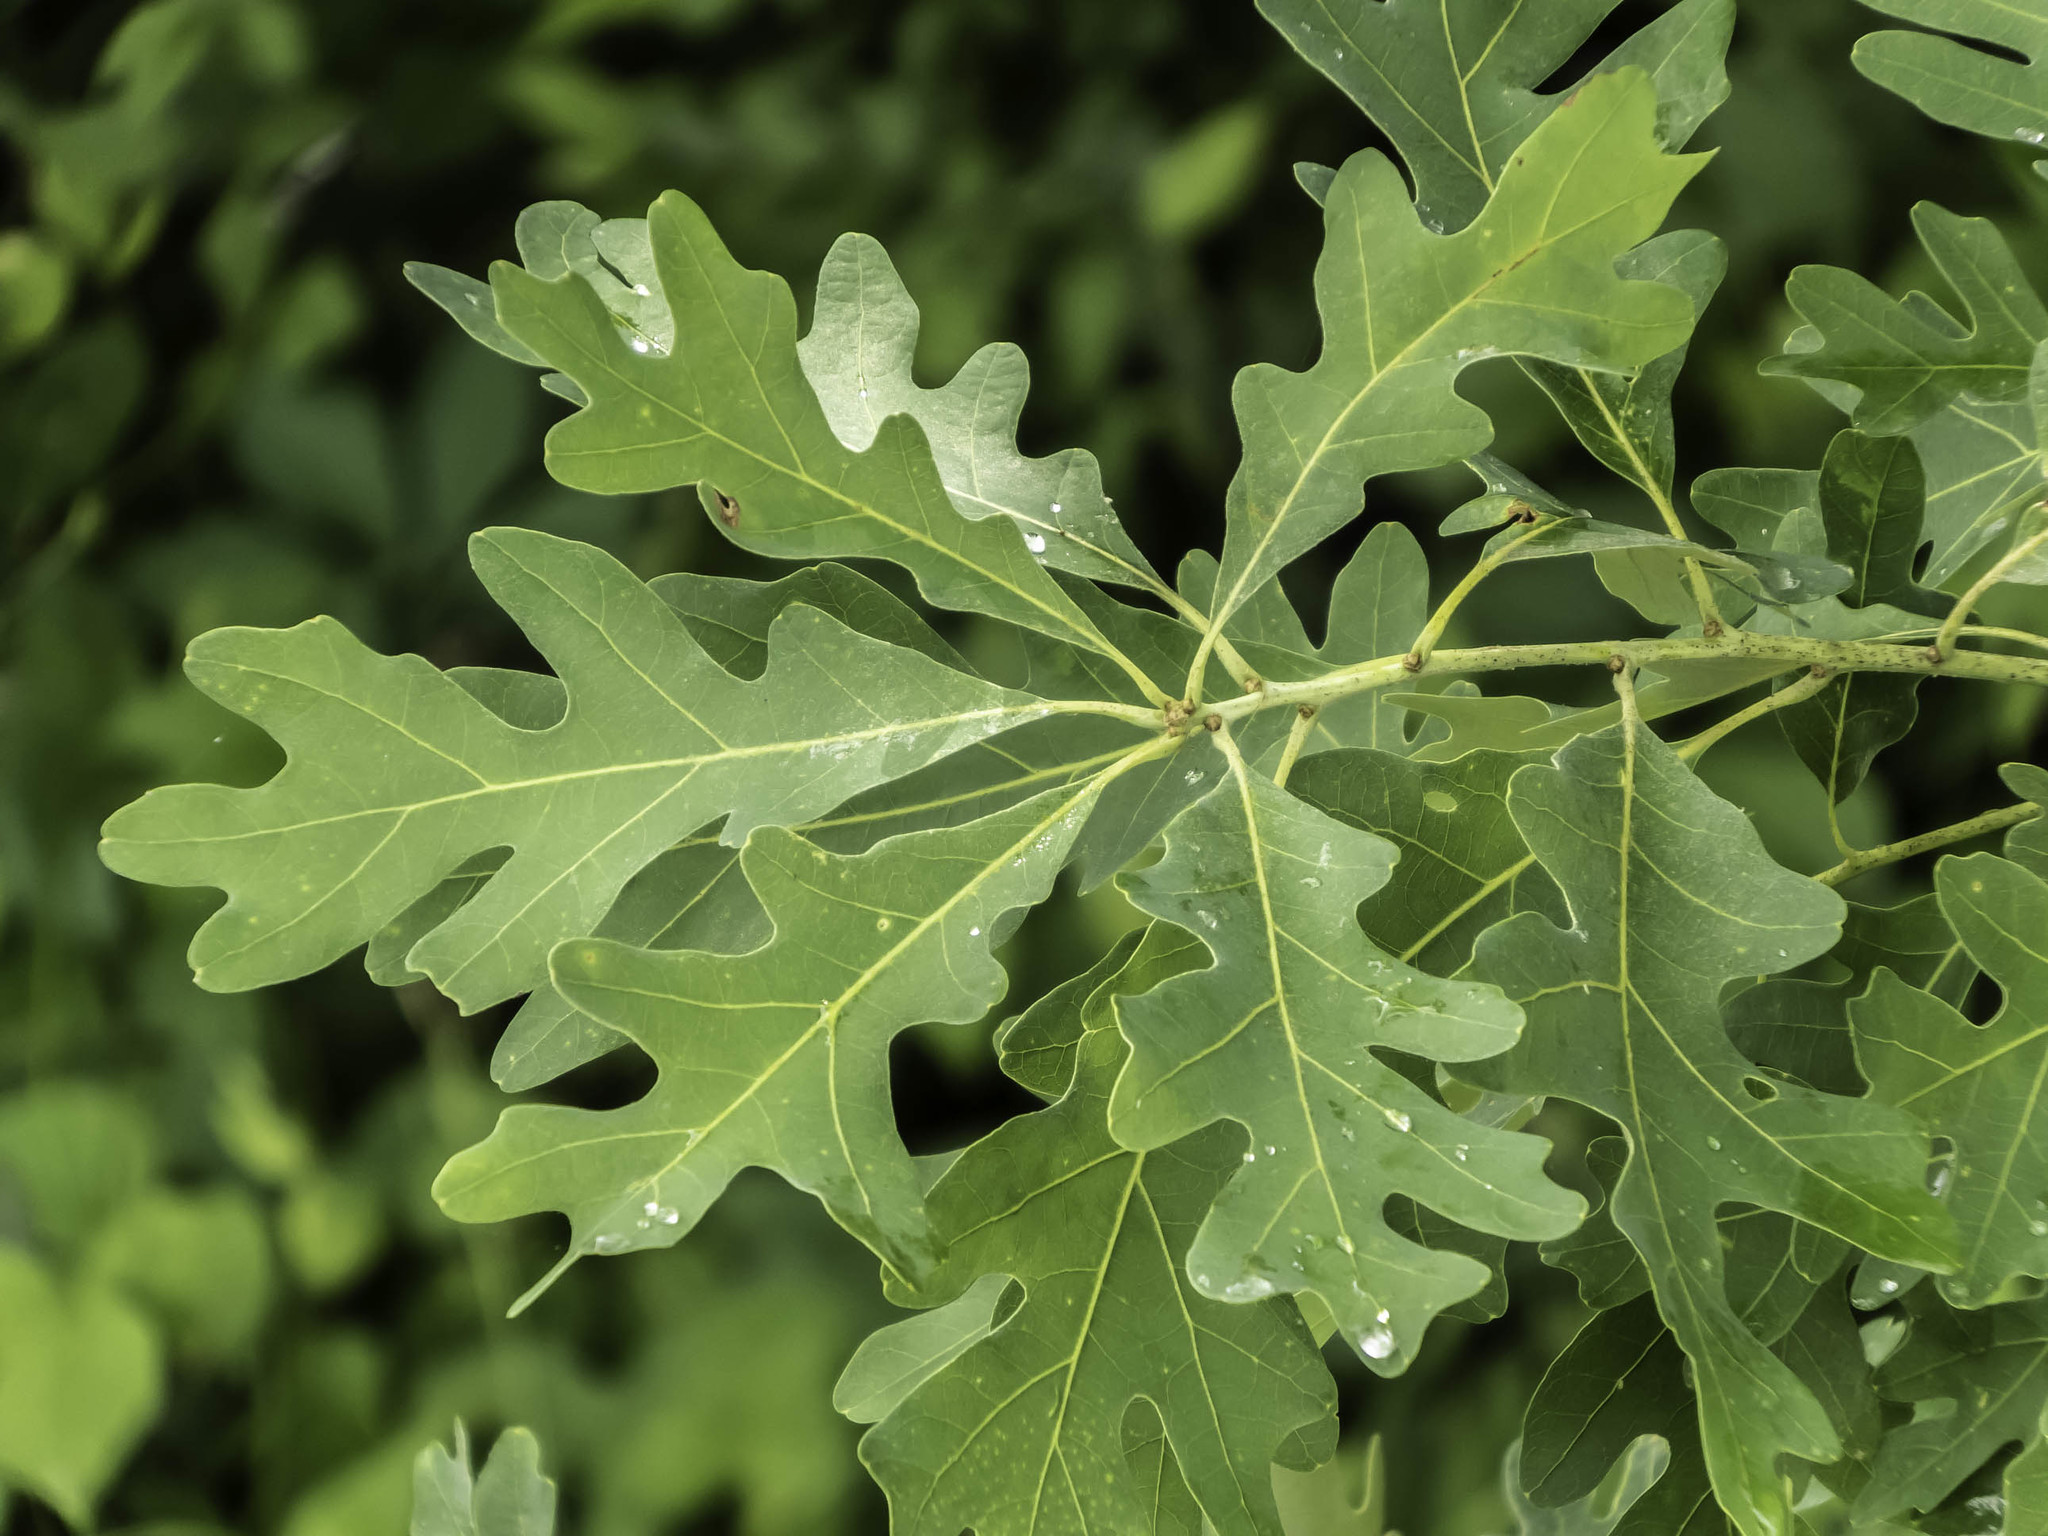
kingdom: Plantae
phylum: Tracheophyta
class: Magnoliopsida
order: Fagales
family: Fagaceae
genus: Quercus
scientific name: Quercus alba
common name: White oak
